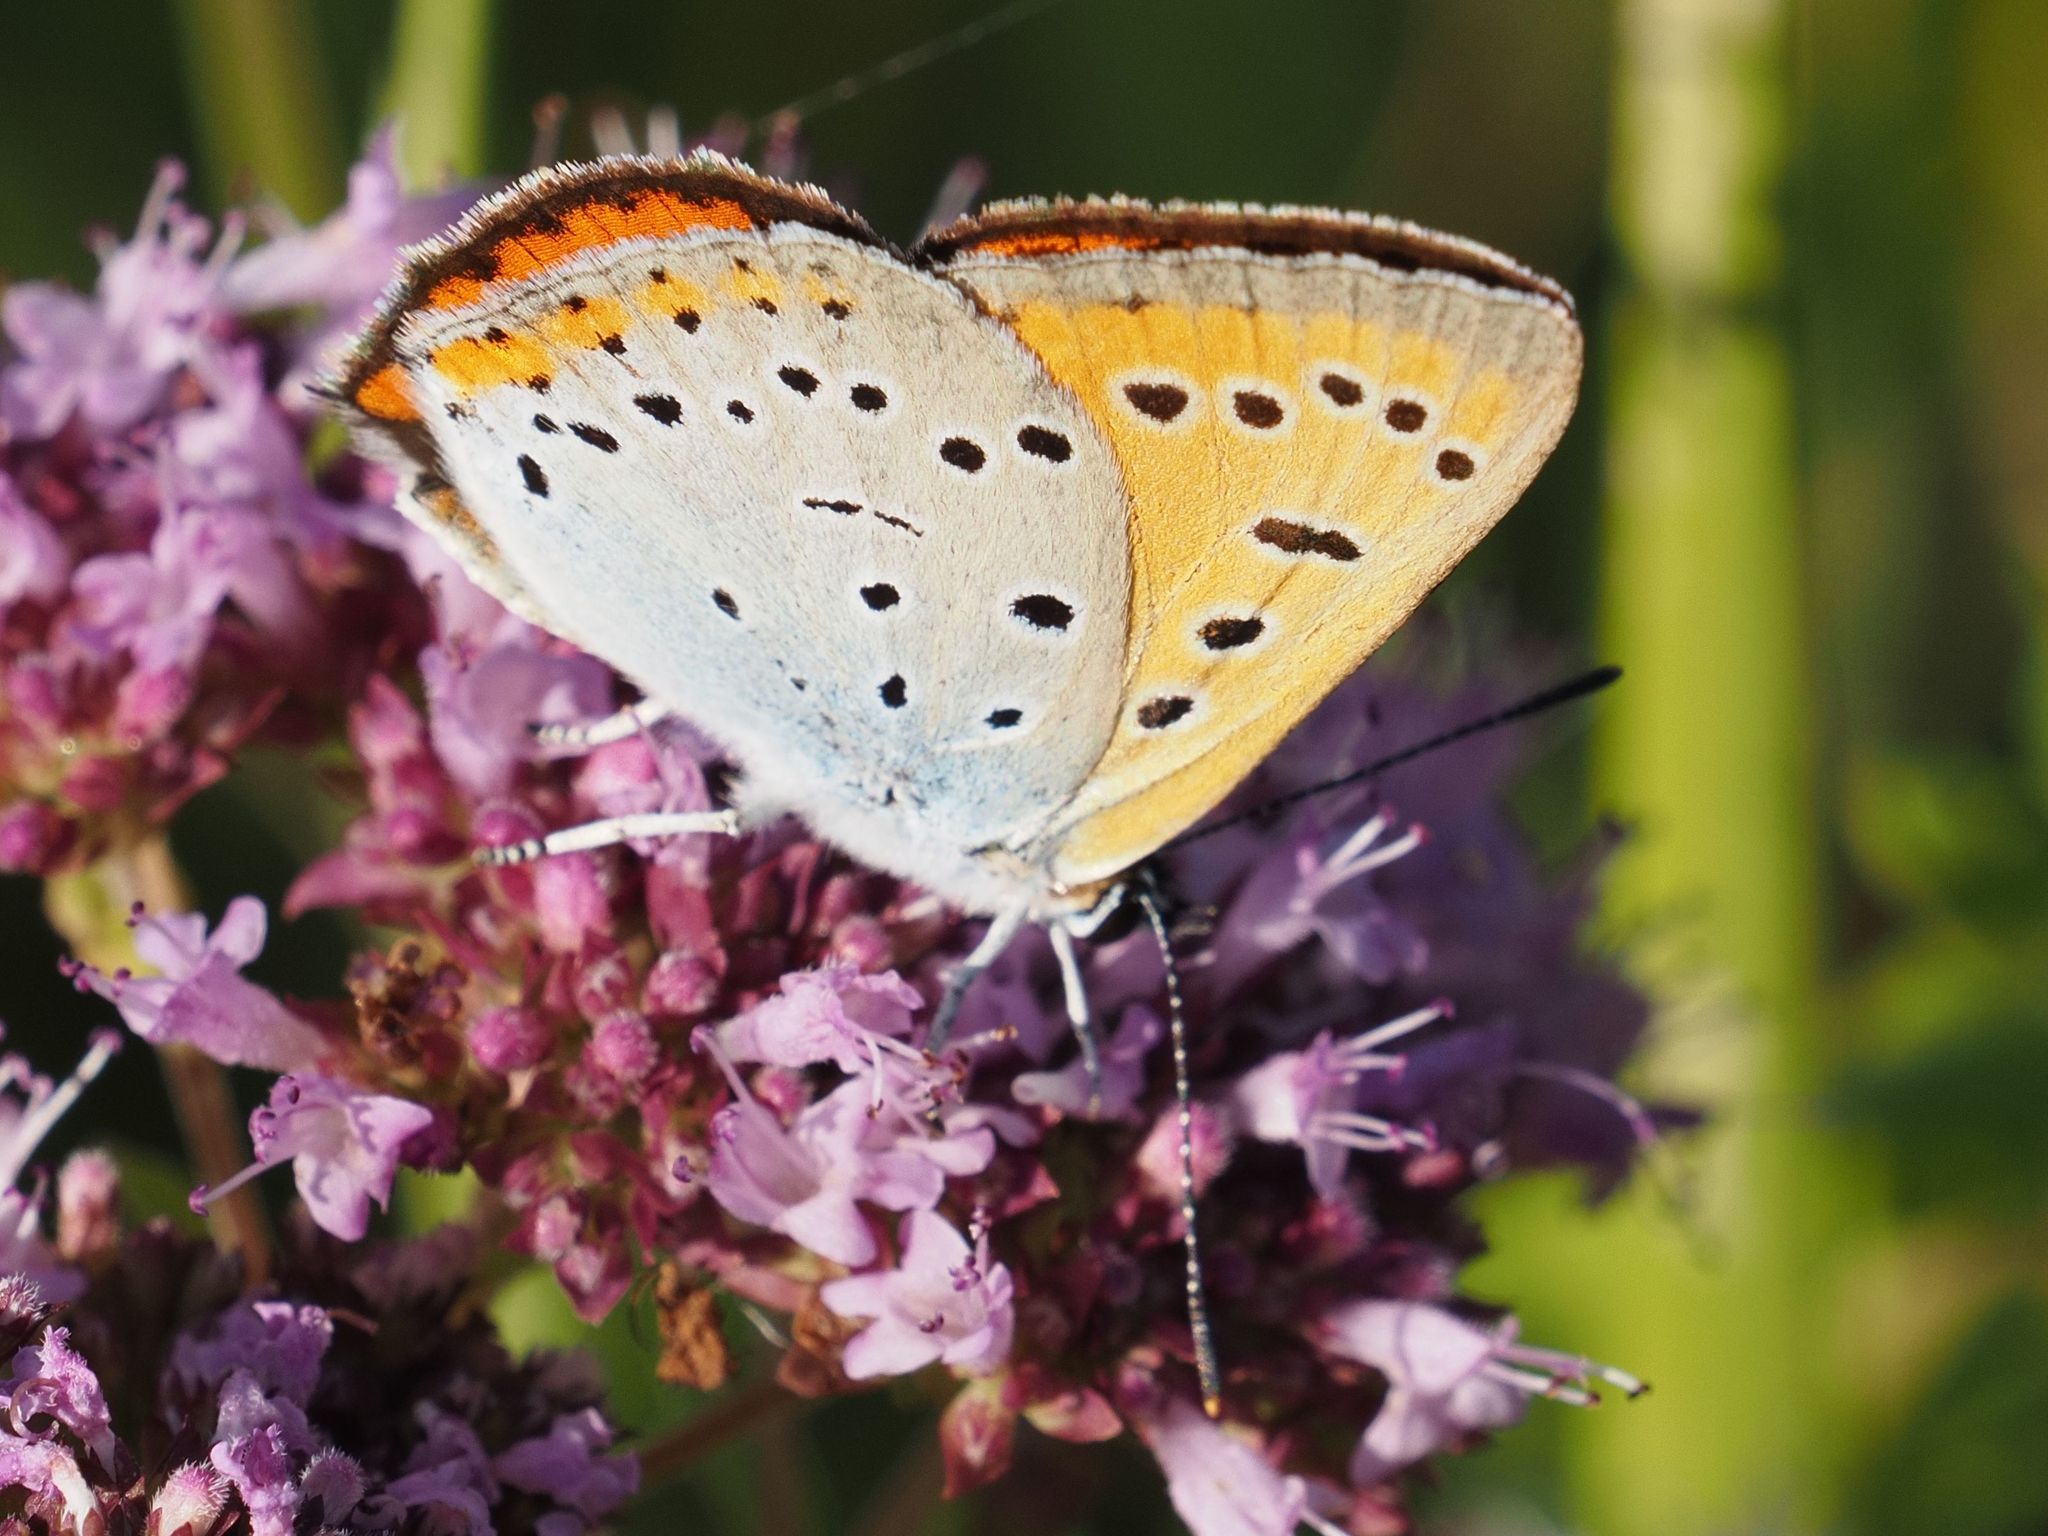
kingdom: Animalia
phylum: Arthropoda
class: Insecta
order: Lepidoptera
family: Lycaenidae
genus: Lycaena
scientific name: Lycaena dispar
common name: Large copper
